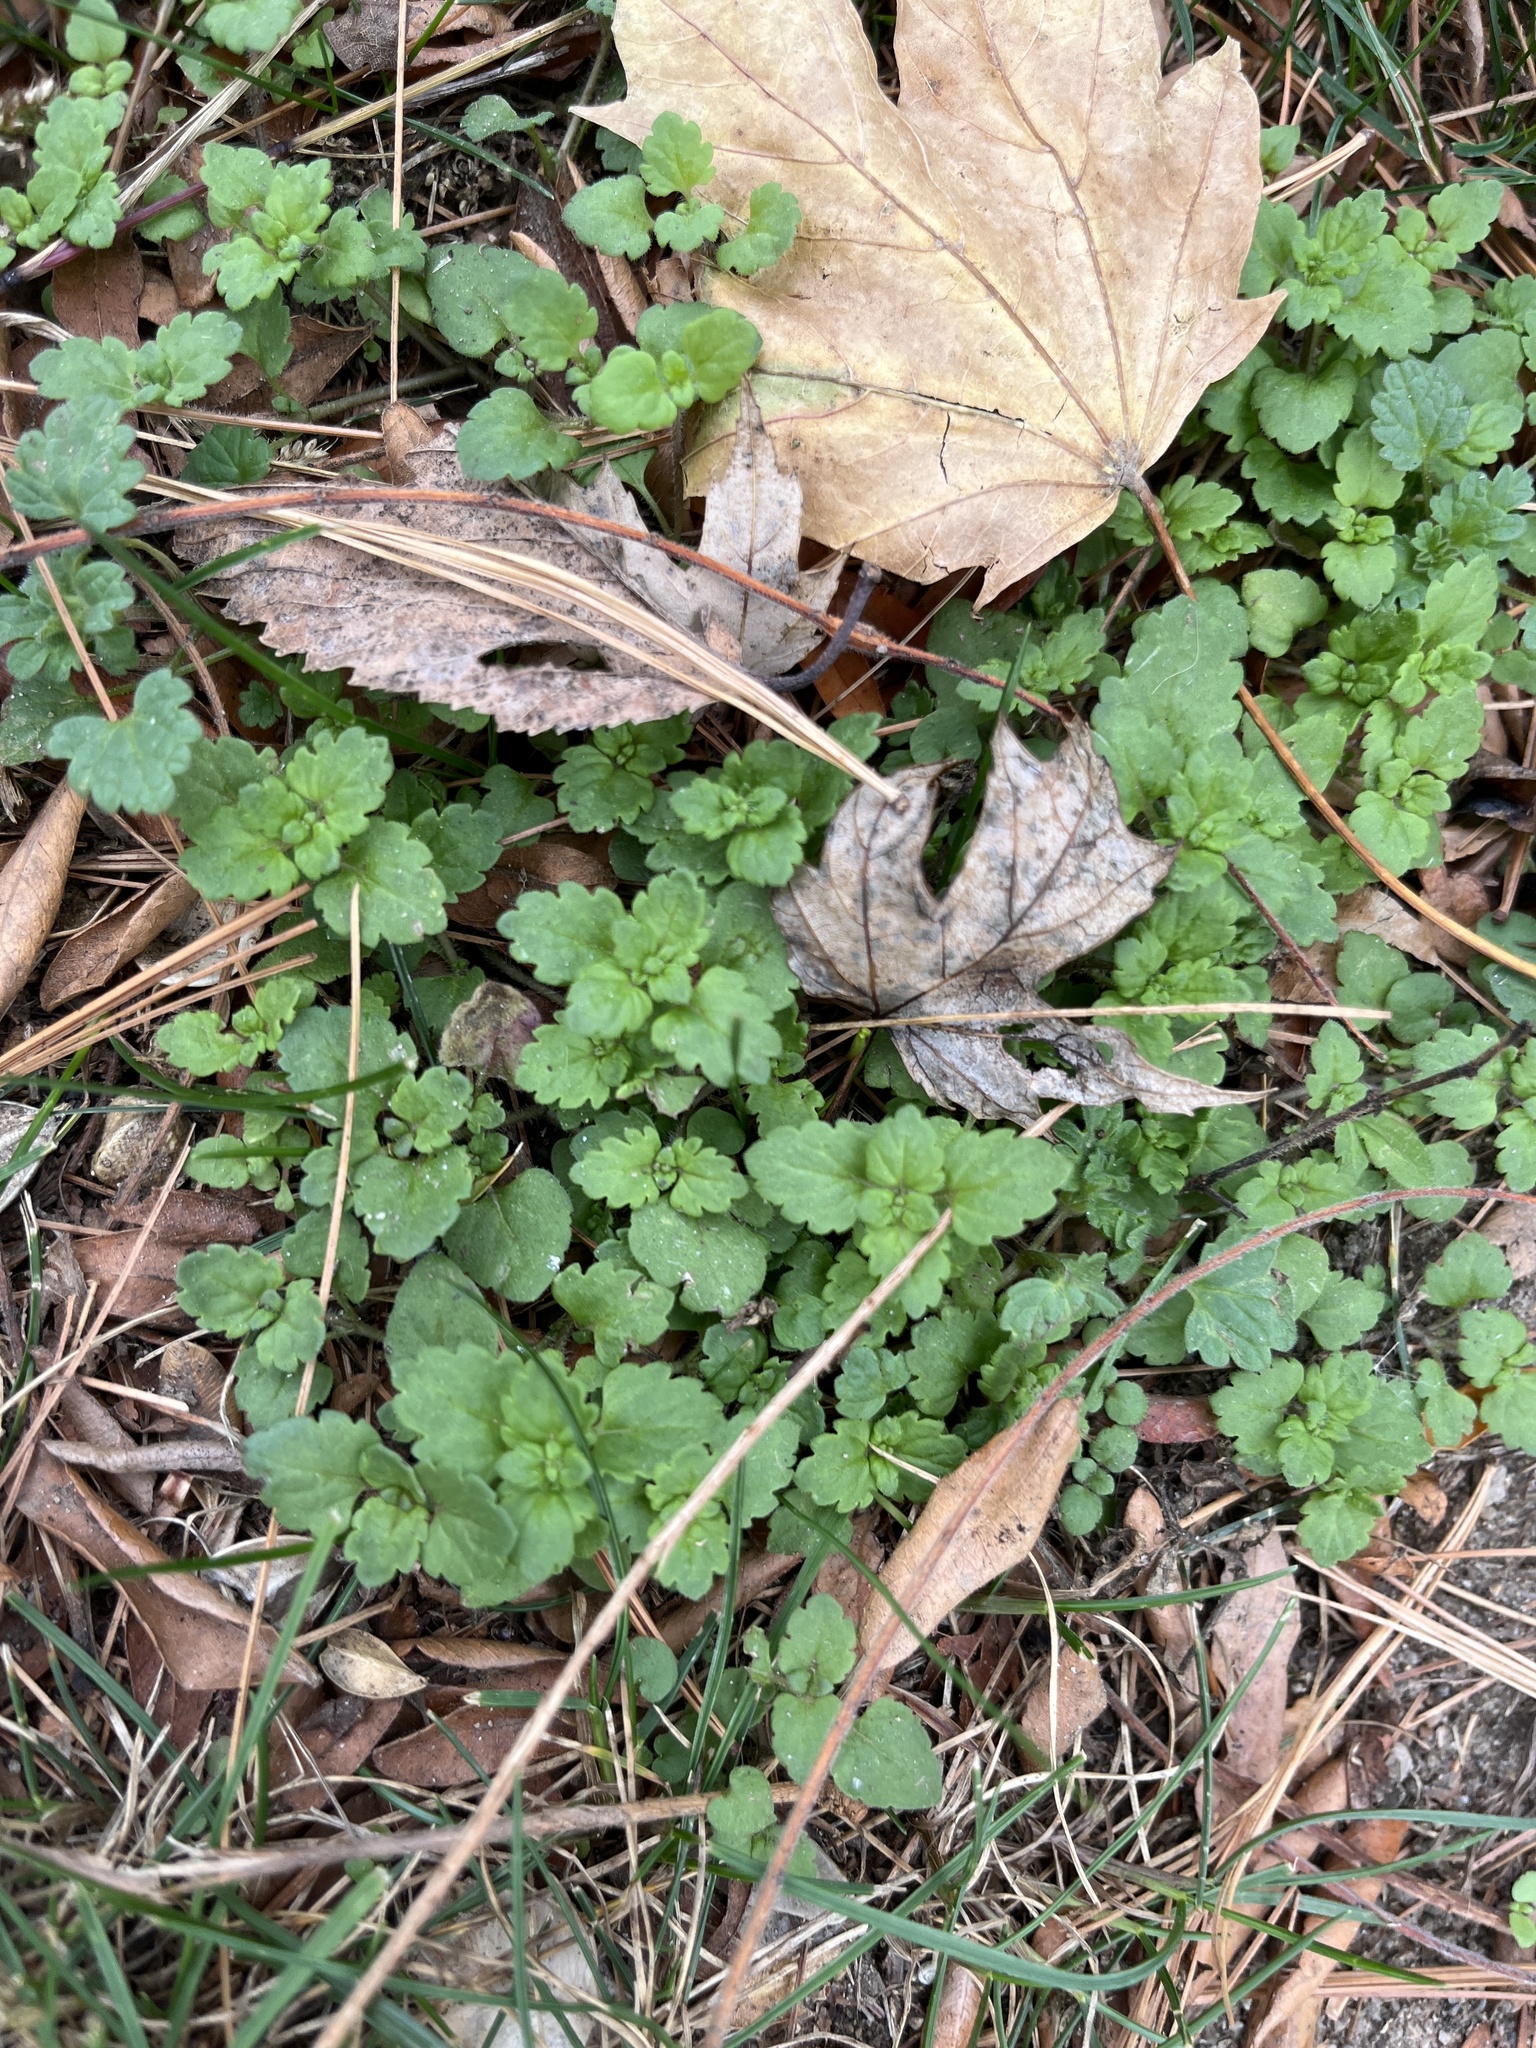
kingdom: Plantae
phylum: Tracheophyta
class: Magnoliopsida
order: Lamiales
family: Lamiaceae
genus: Lamium
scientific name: Lamium amplexicaule
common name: Henbit dead-nettle
